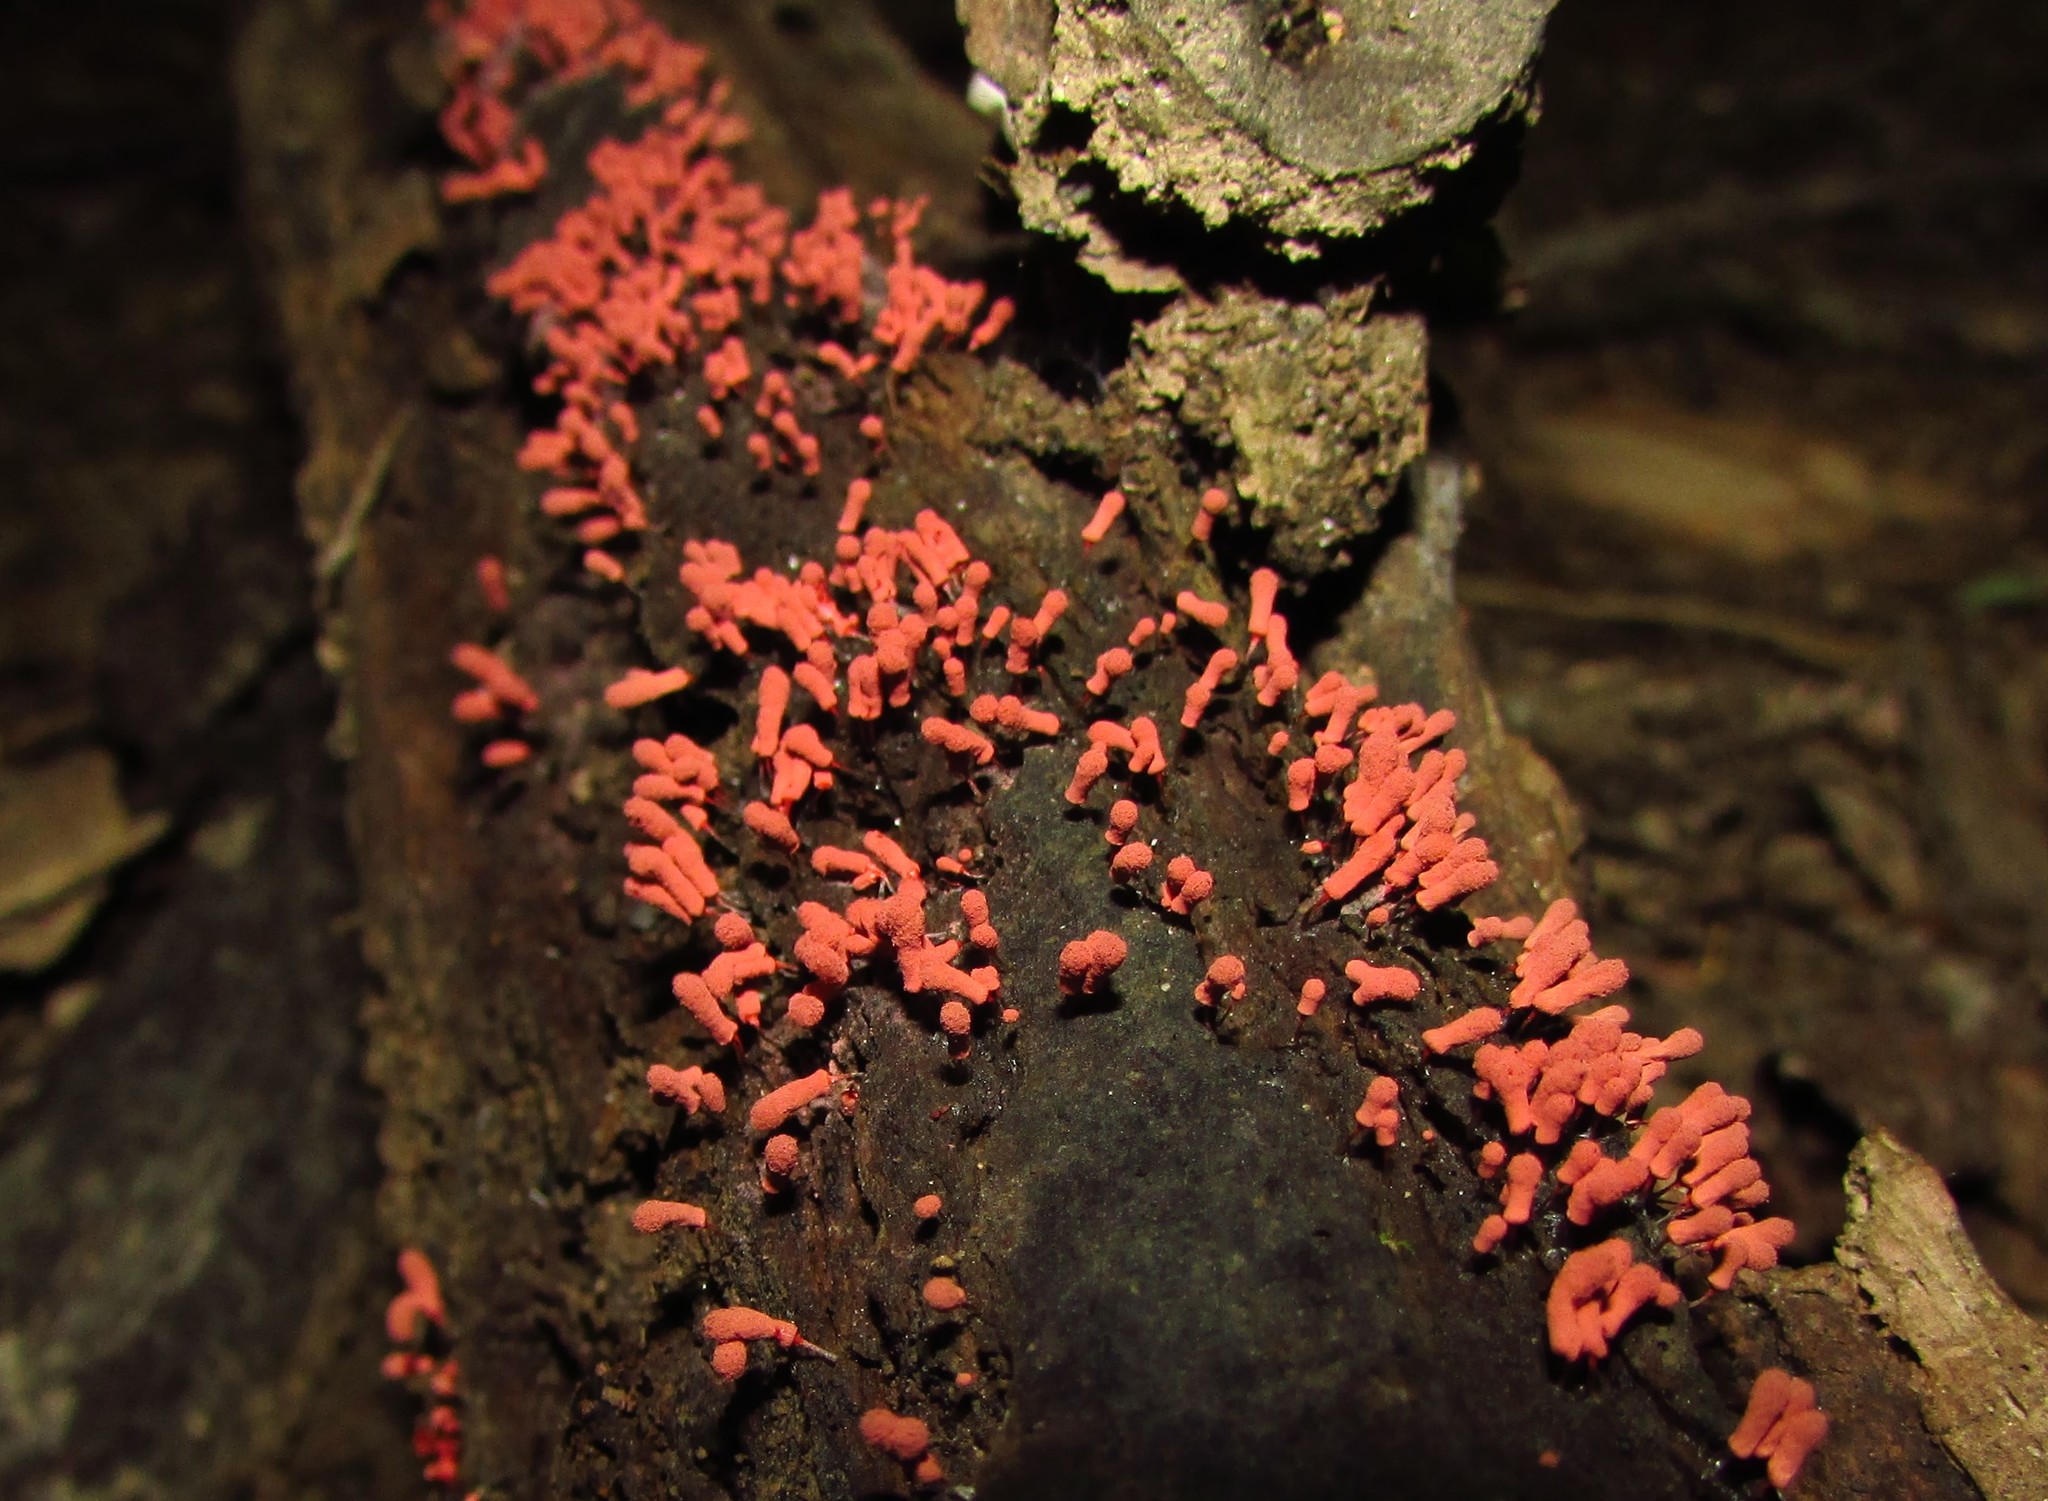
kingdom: Protozoa
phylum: Mycetozoa
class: Myxomycetes
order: Trichiales
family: Arcyriaceae
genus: Arcyria
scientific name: Arcyria denudata
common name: Carnival candy slime mold
